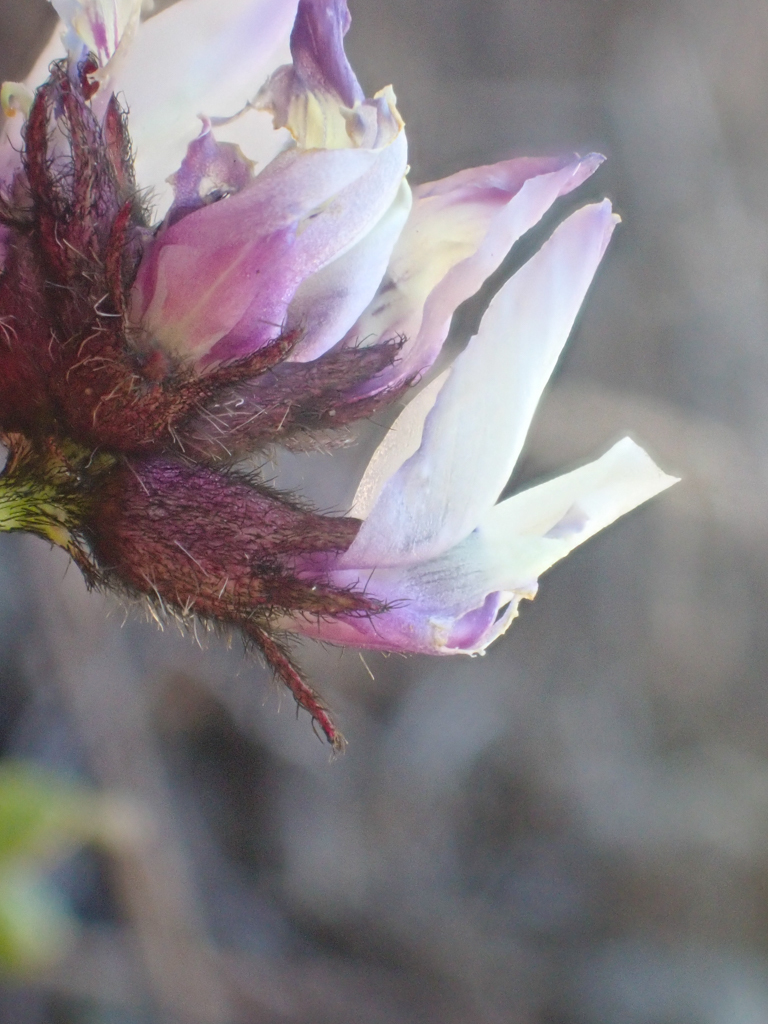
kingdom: Plantae
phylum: Tracheophyta
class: Magnoliopsida
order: Fabales
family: Fabaceae
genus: Astragalus
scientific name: Astragalus breweri
